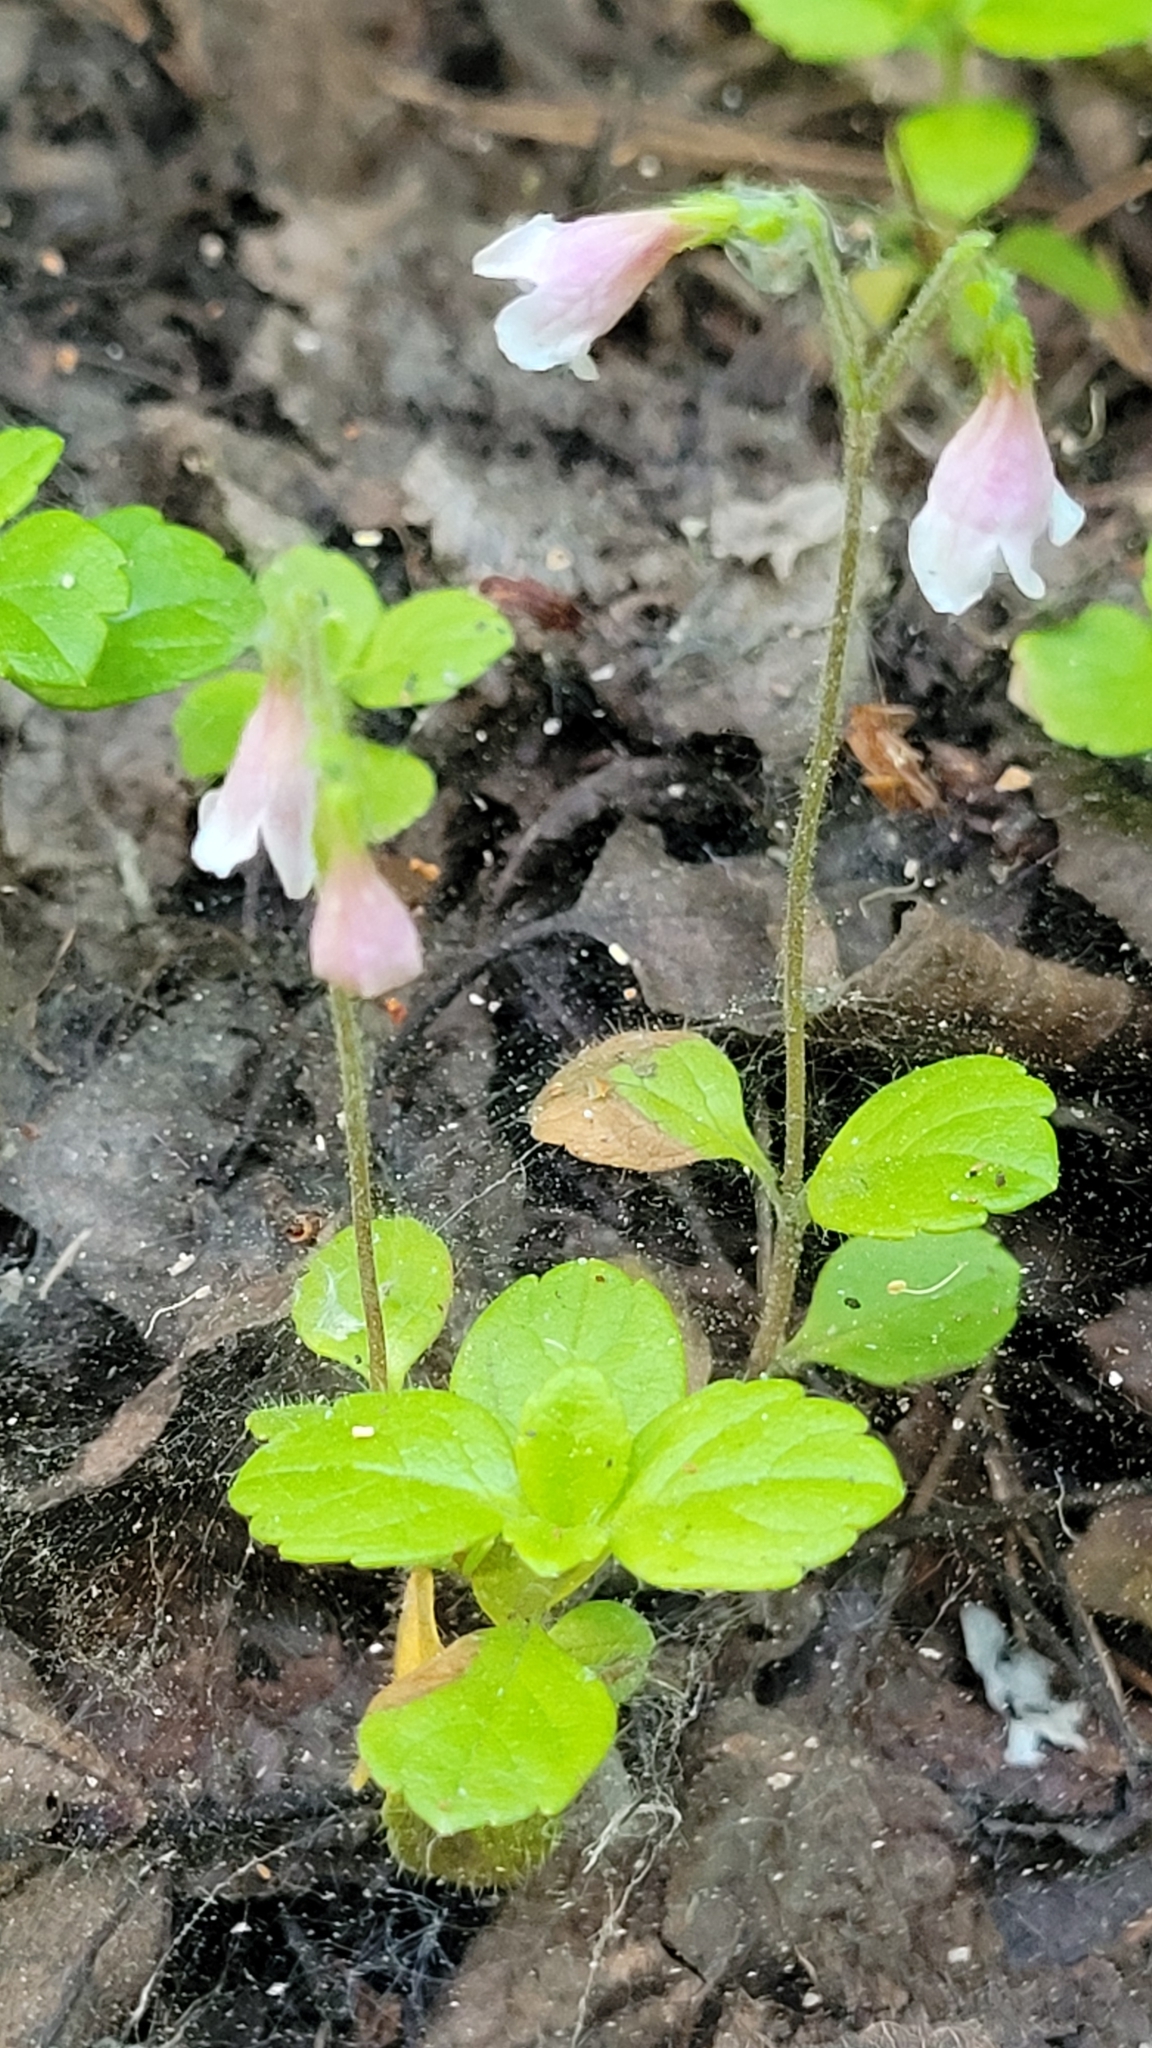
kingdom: Plantae
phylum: Tracheophyta
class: Magnoliopsida
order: Dipsacales
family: Caprifoliaceae
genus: Linnaea
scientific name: Linnaea borealis
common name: Twinflower
